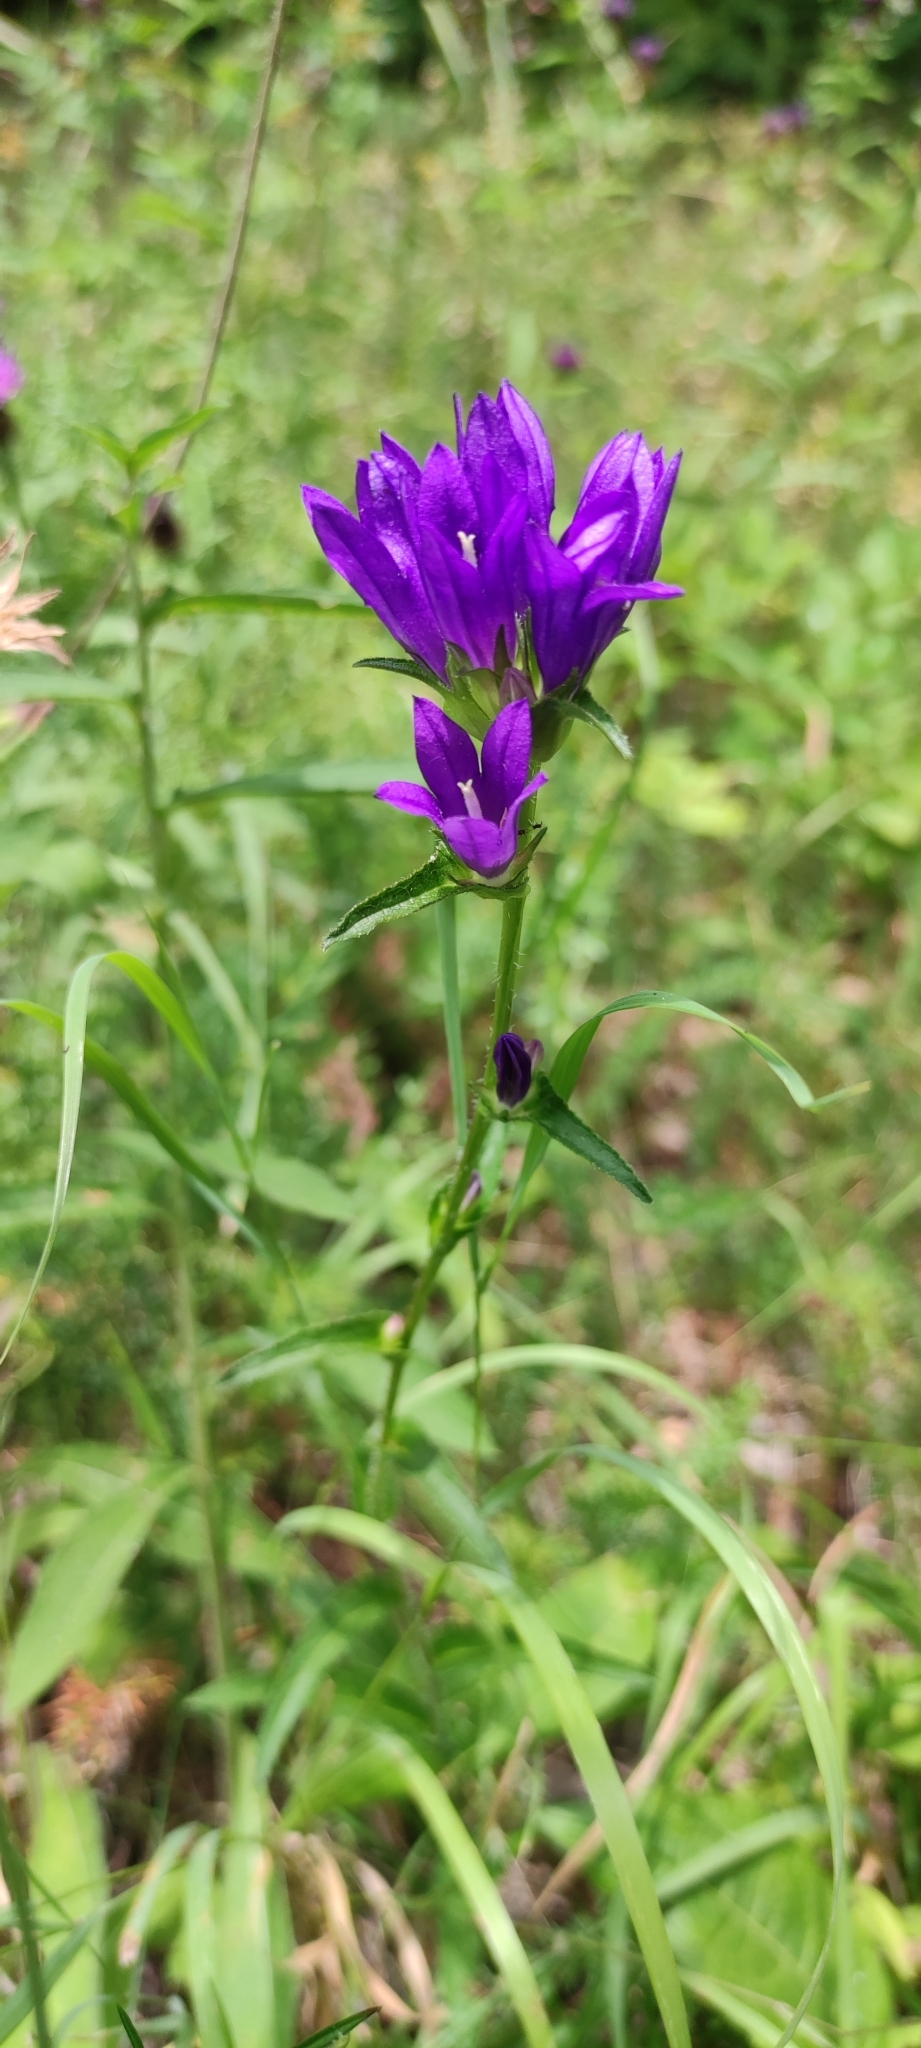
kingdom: Plantae
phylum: Tracheophyta
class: Magnoliopsida
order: Asterales
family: Campanulaceae
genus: Campanula
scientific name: Campanula glomerata
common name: Clustered bellflower
